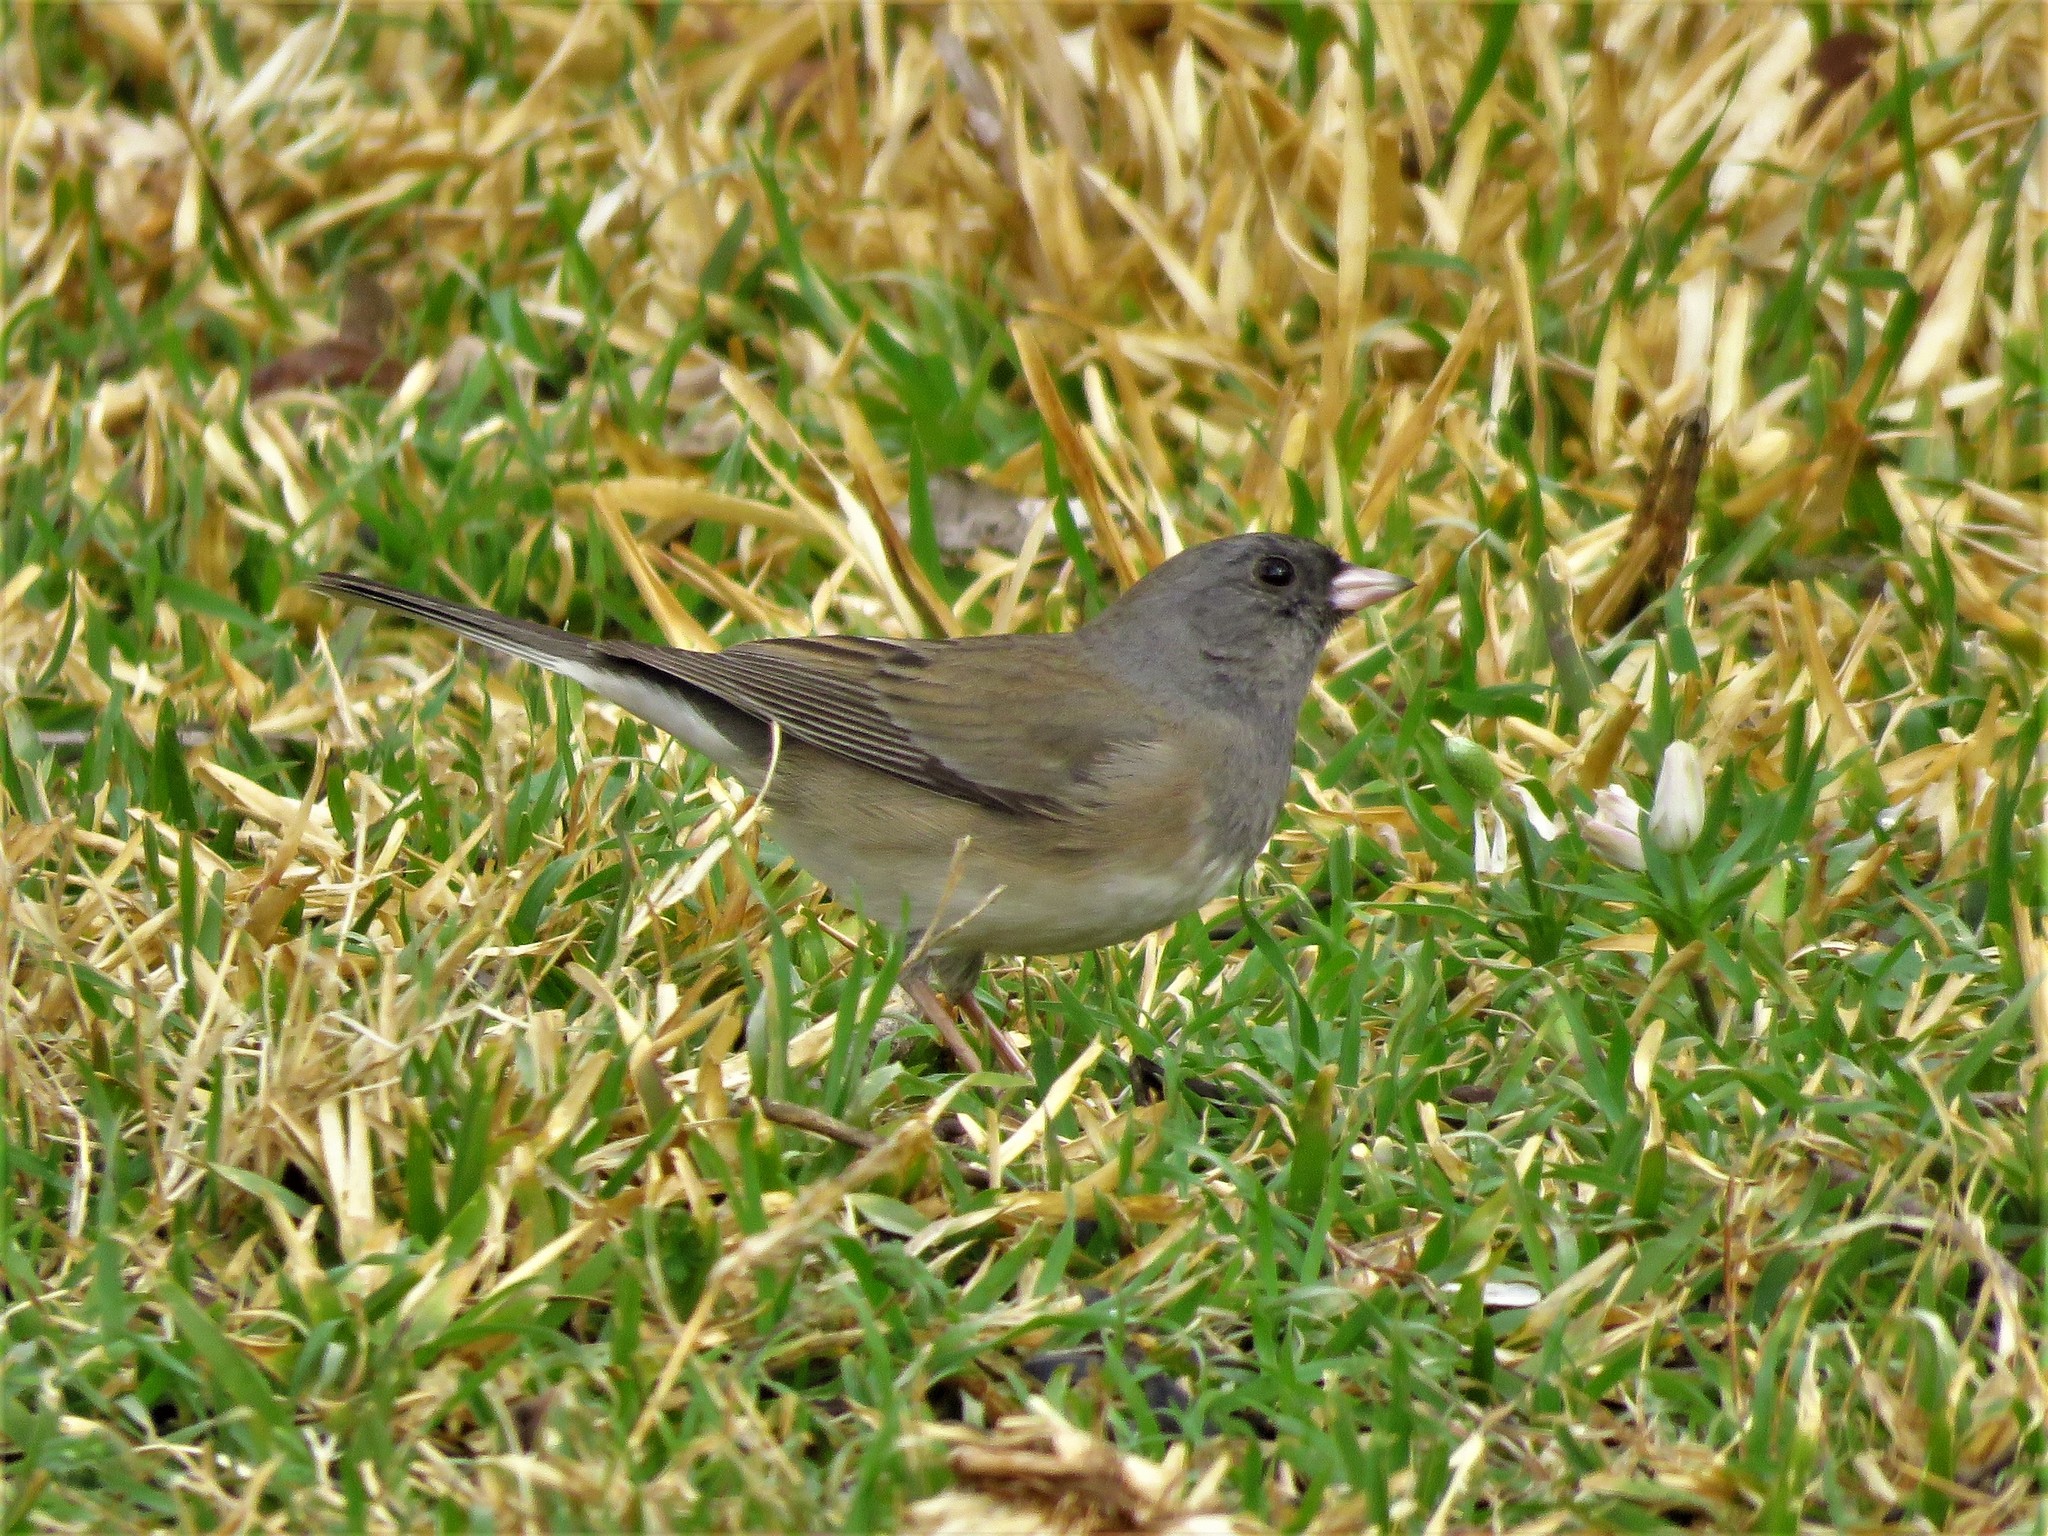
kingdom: Animalia
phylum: Chordata
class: Aves
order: Passeriformes
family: Passerellidae
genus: Junco
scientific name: Junco hyemalis
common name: Dark-eyed junco
